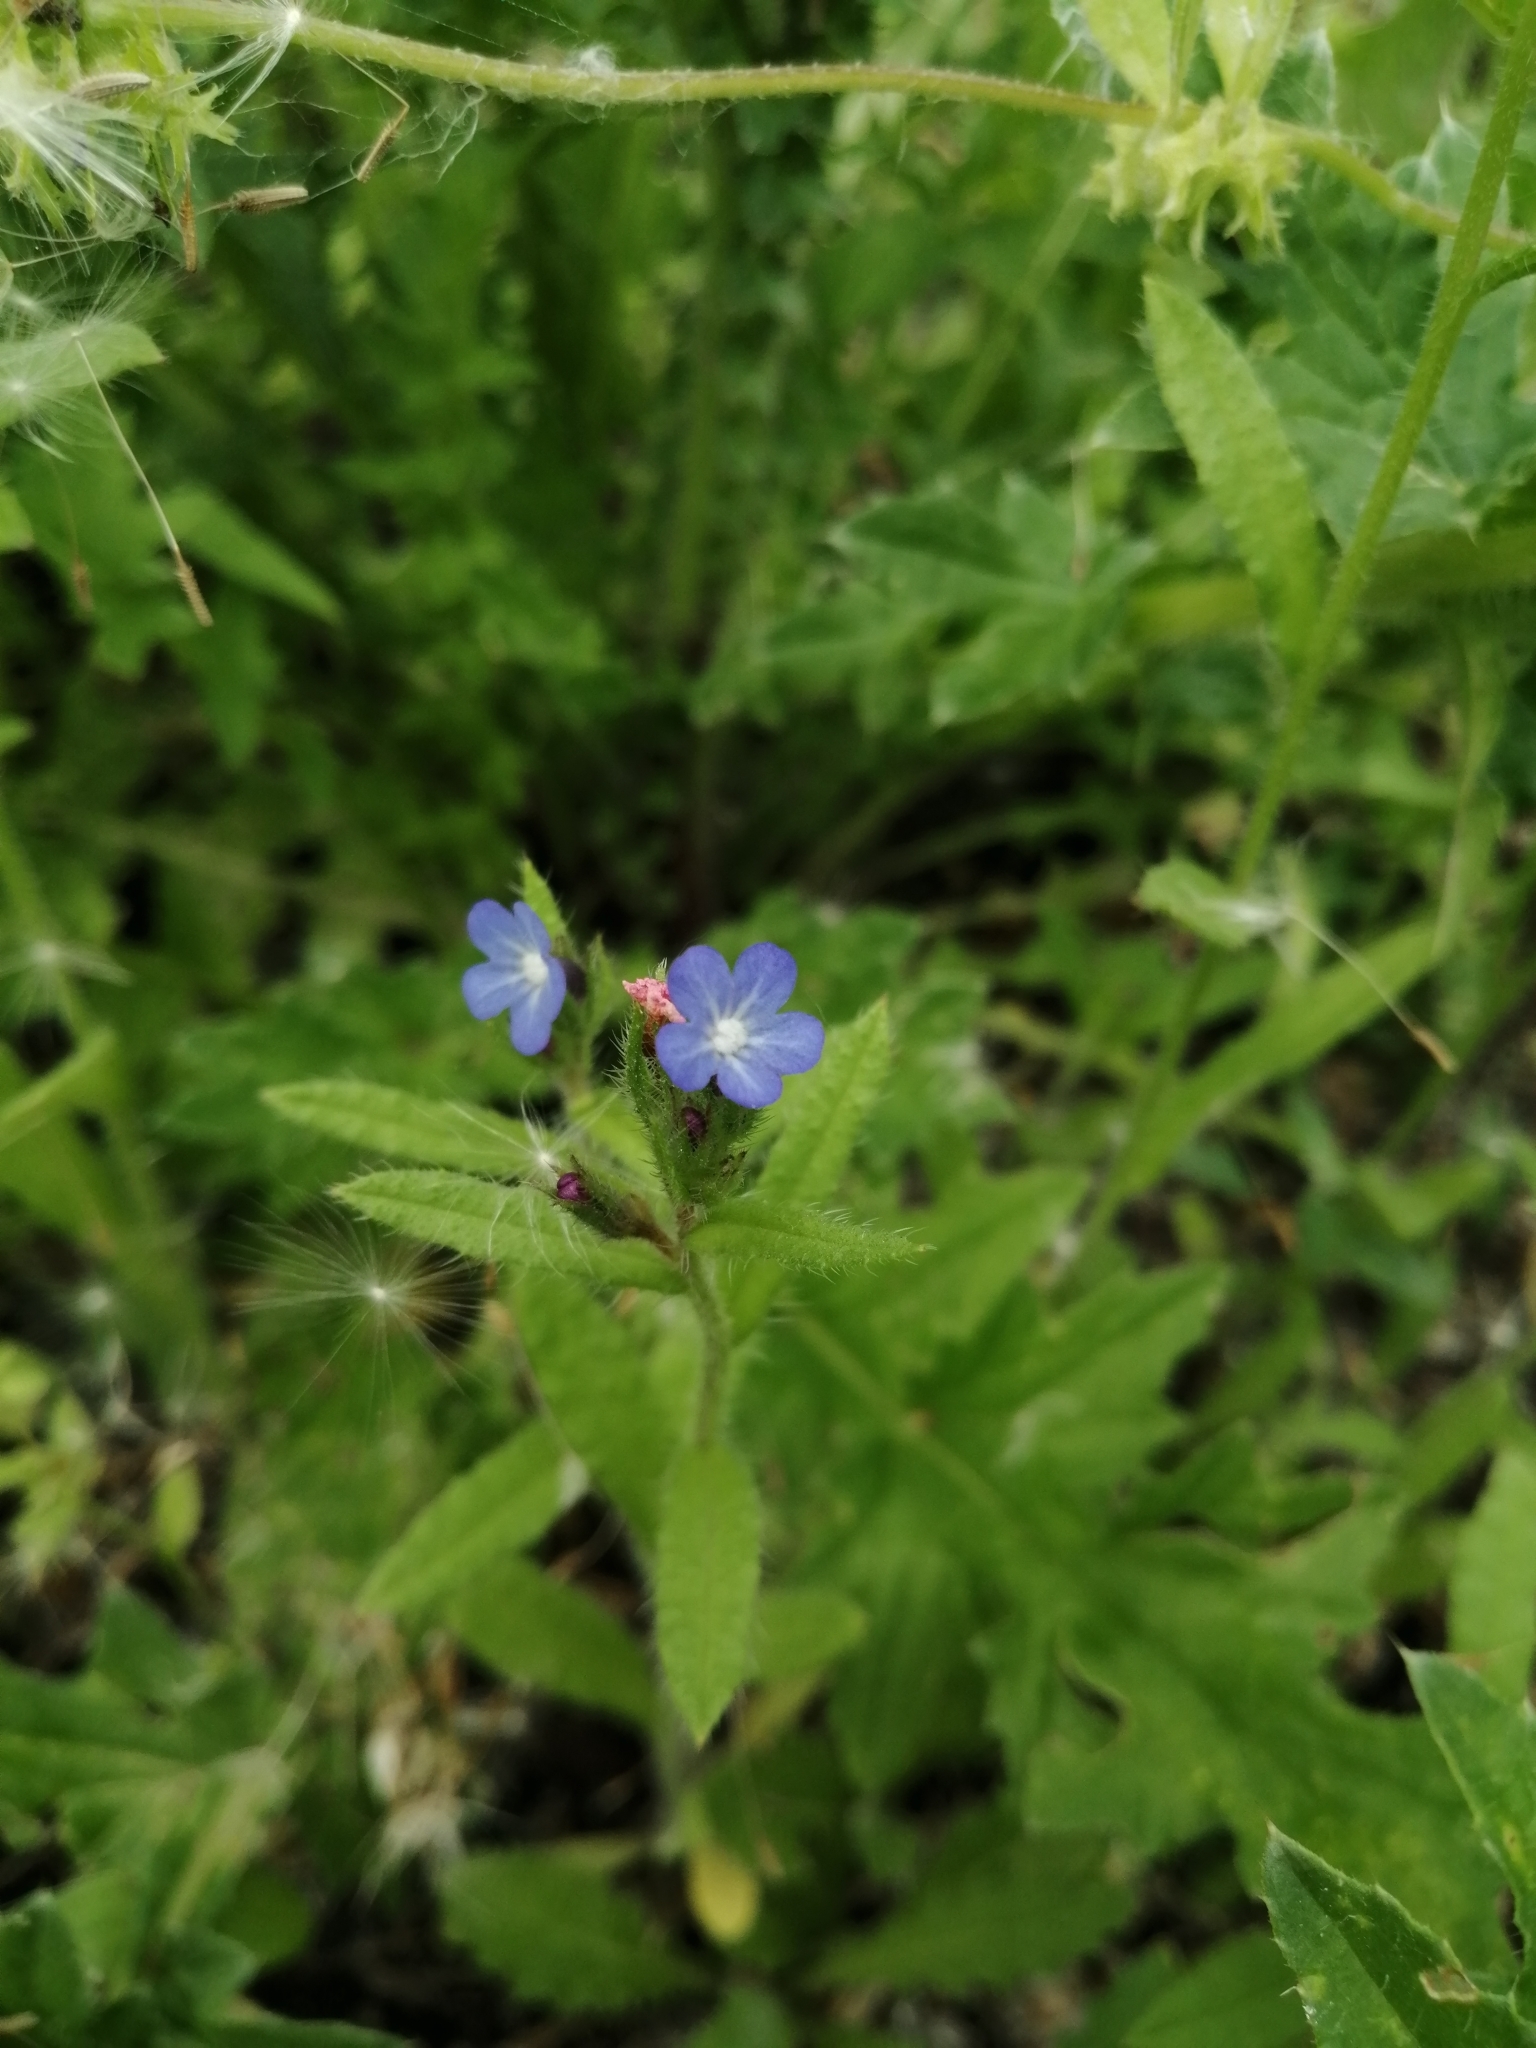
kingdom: Plantae
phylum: Tracheophyta
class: Magnoliopsida
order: Boraginales
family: Boraginaceae
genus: Lycopsis
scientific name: Lycopsis arvensis
